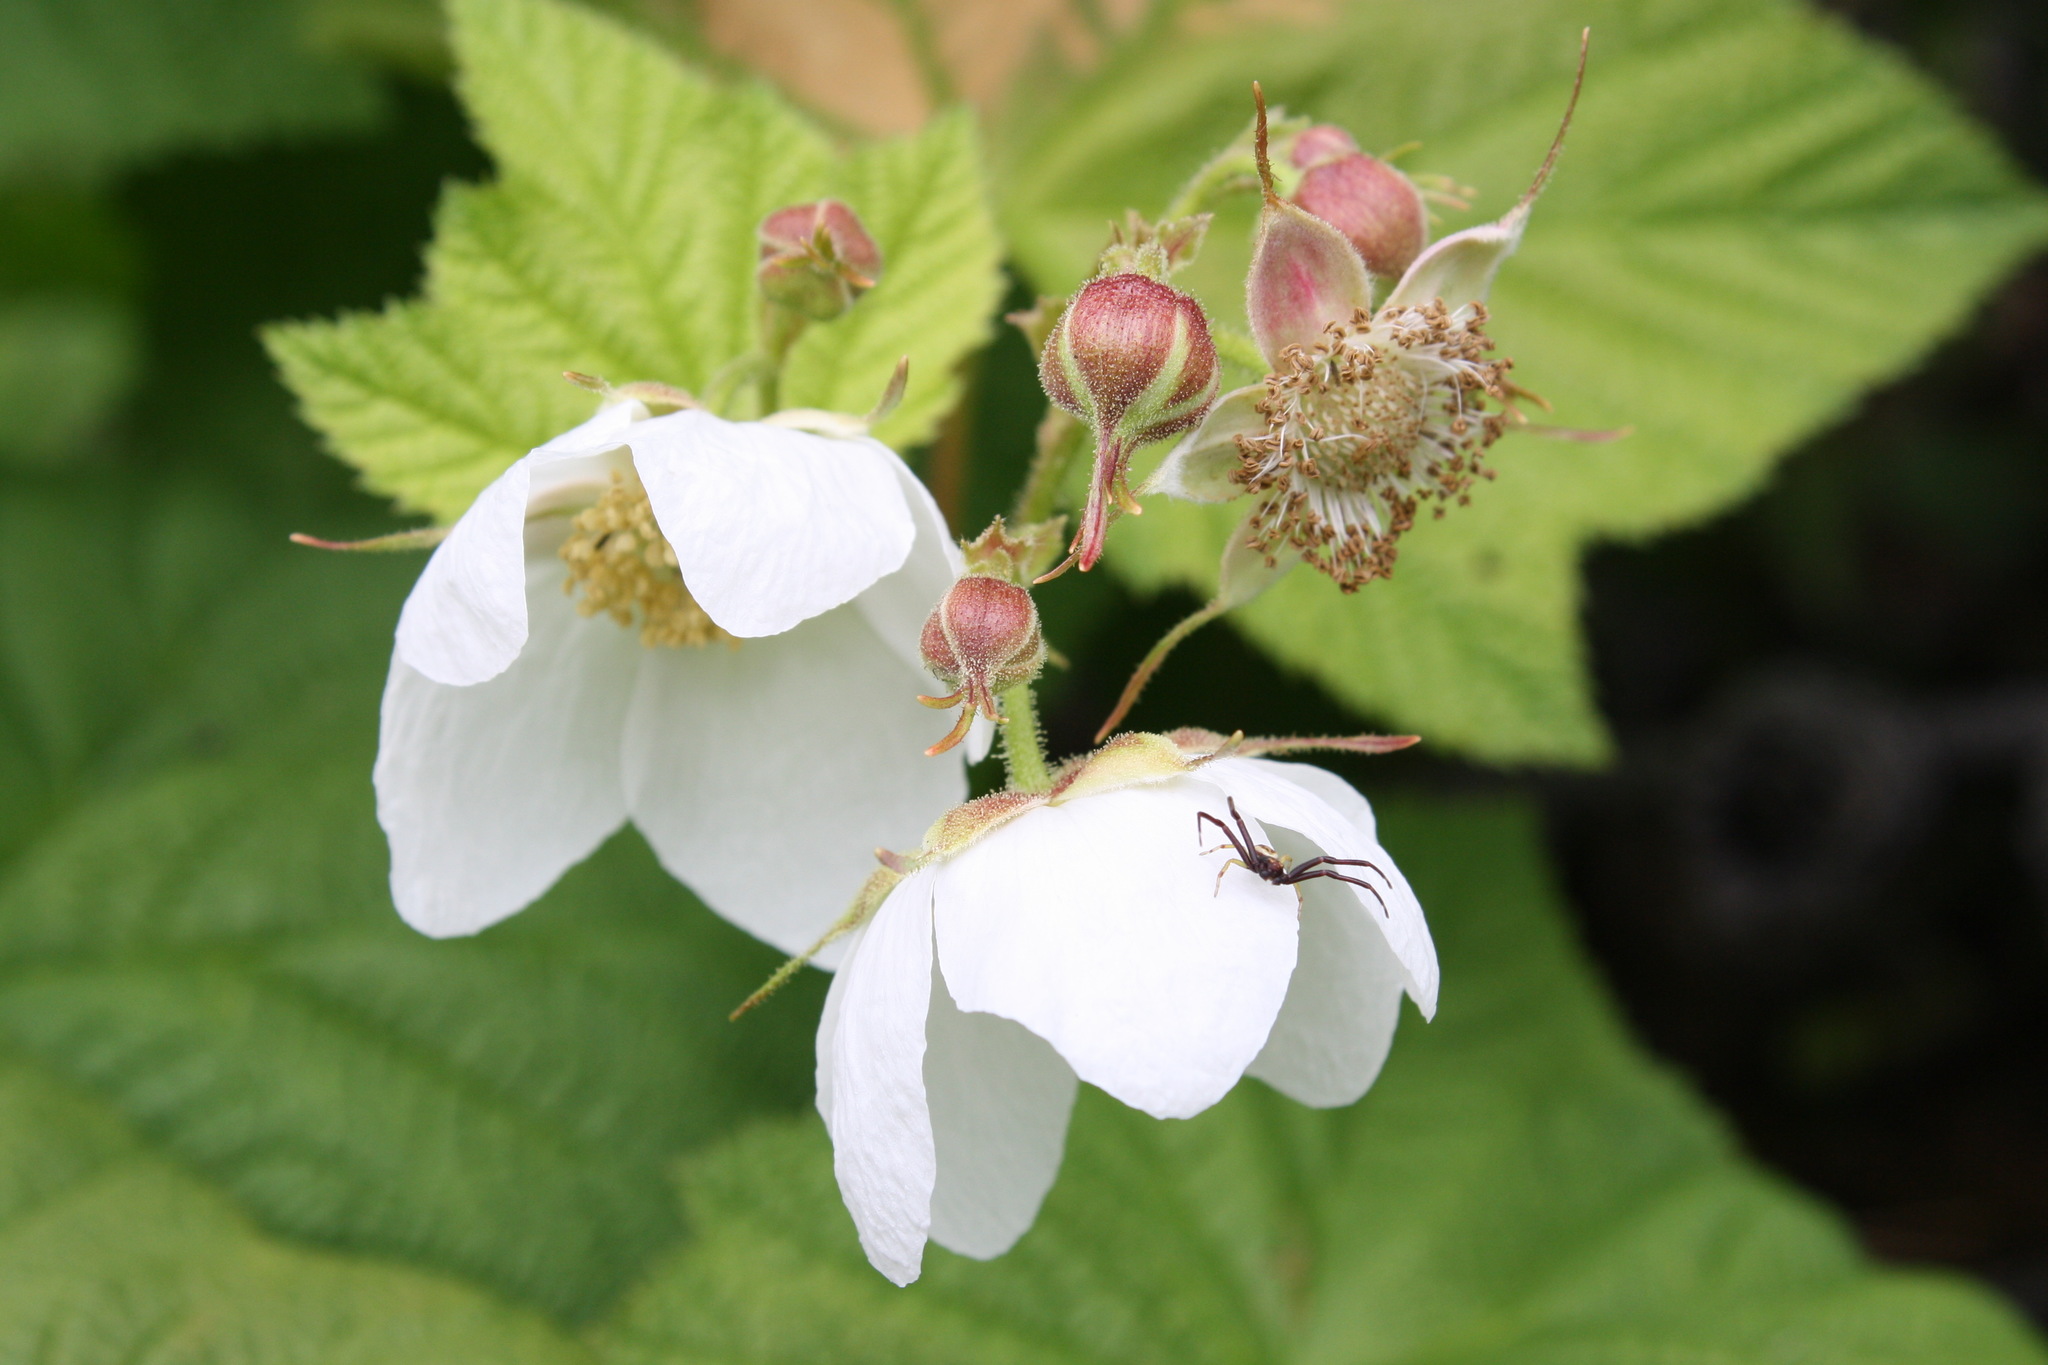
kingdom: Plantae
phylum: Tracheophyta
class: Magnoliopsida
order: Rosales
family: Rosaceae
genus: Rubus
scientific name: Rubus parviflorus
